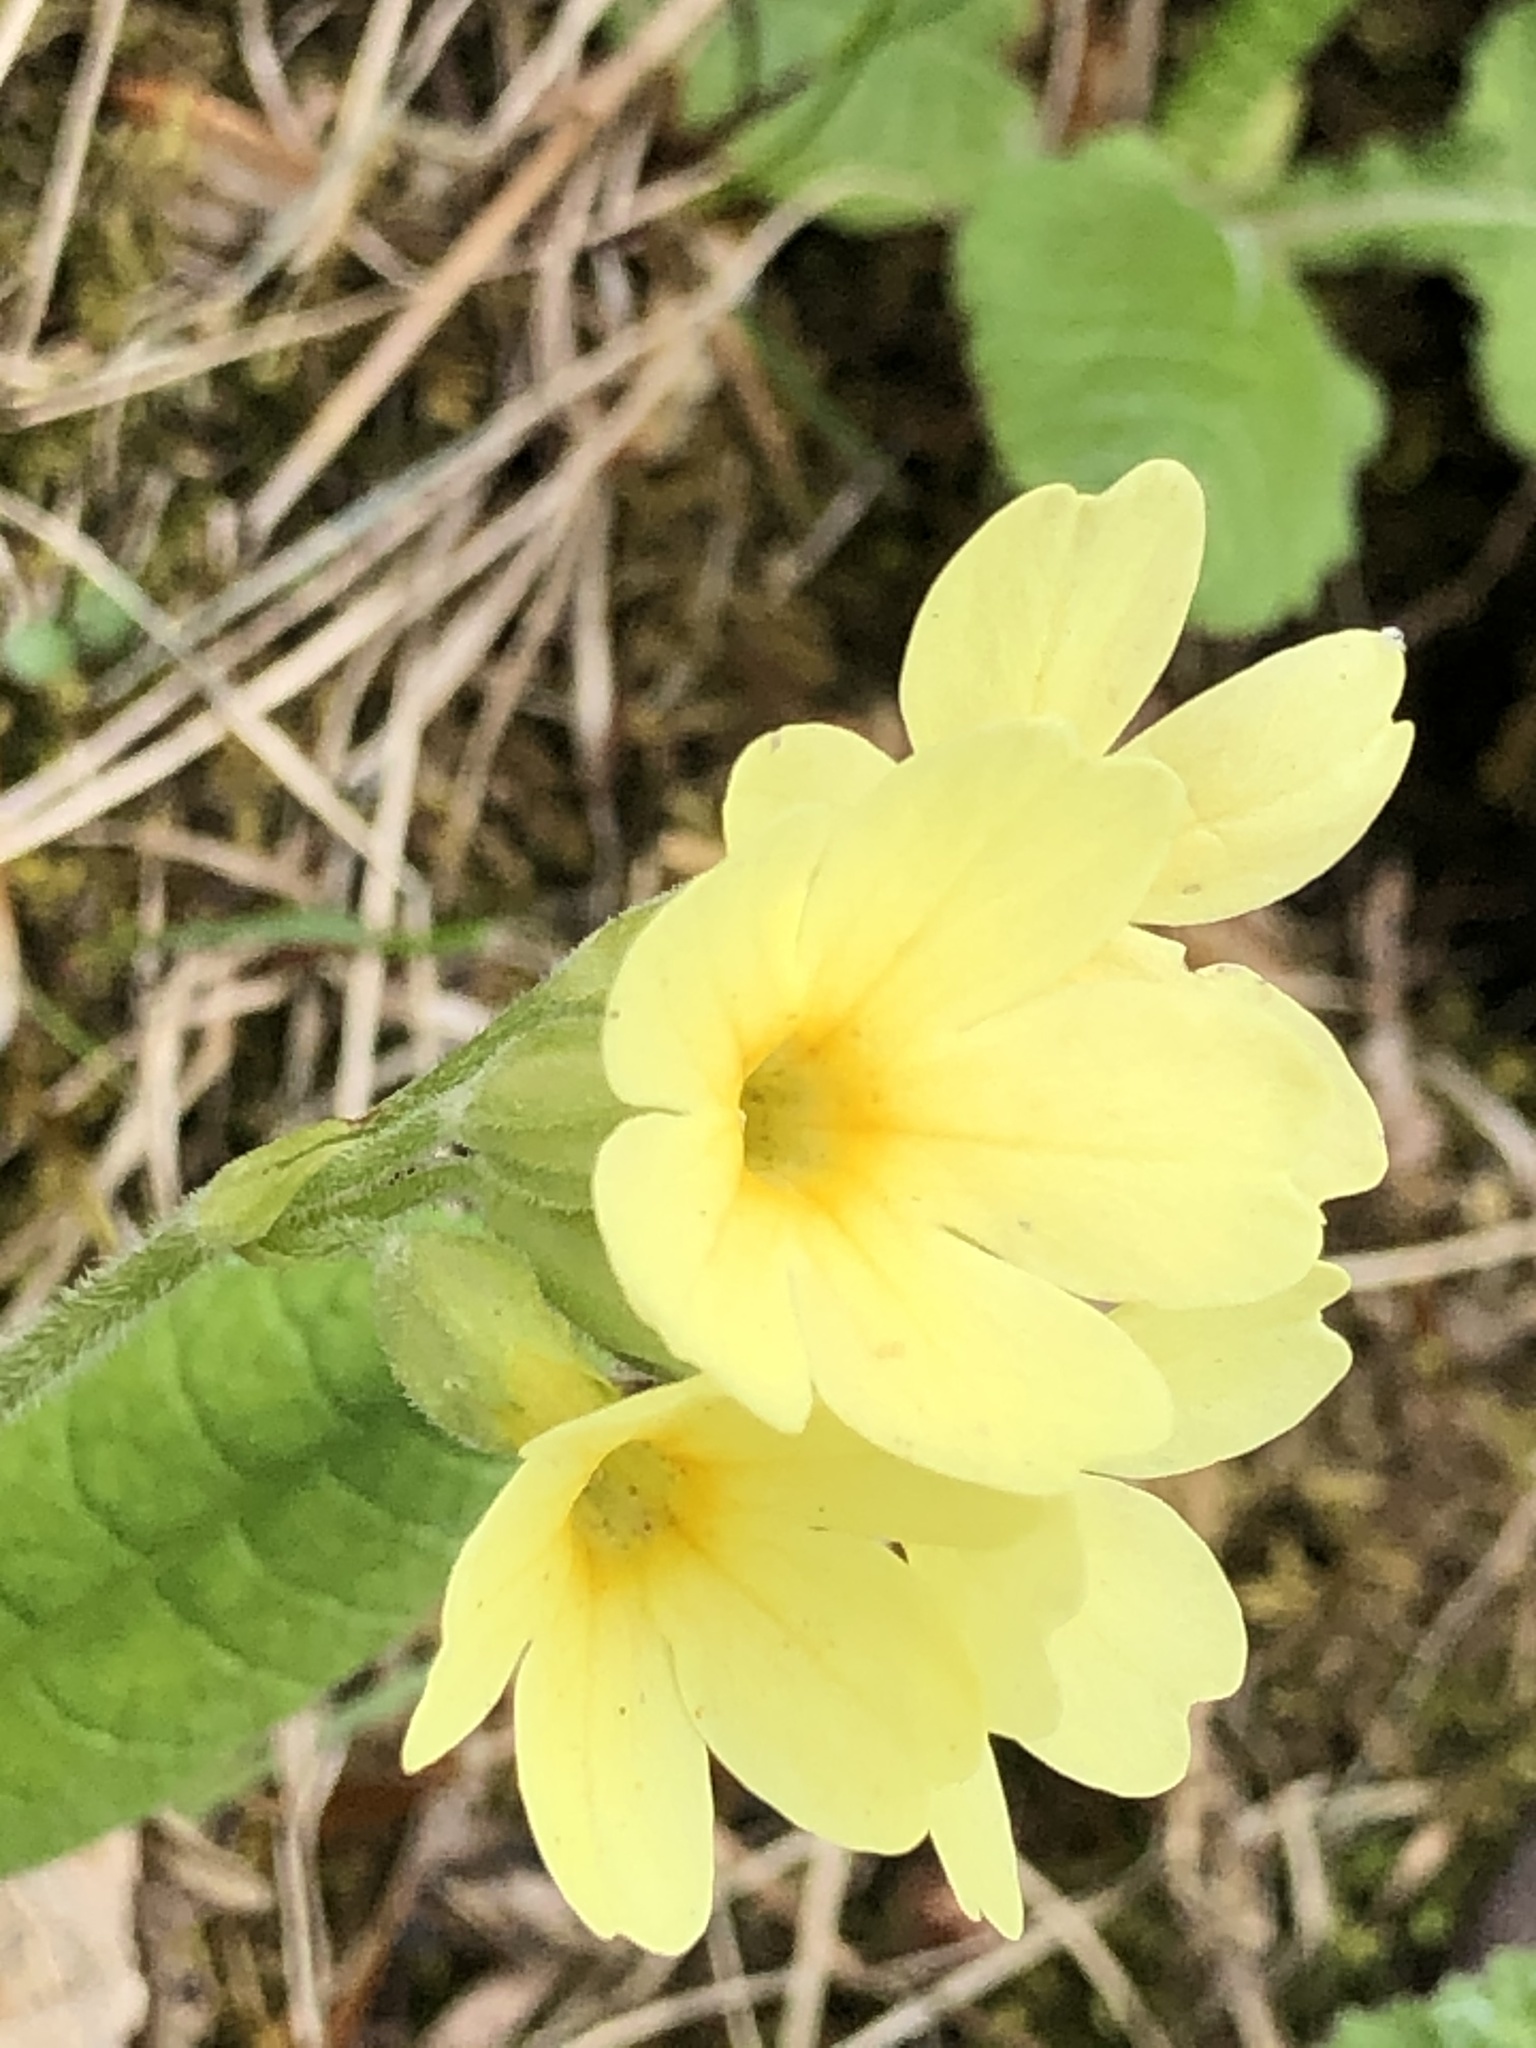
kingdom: Plantae
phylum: Tracheophyta
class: Magnoliopsida
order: Ericales
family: Primulaceae
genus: Primula
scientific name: Primula elatior
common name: Oxlip
